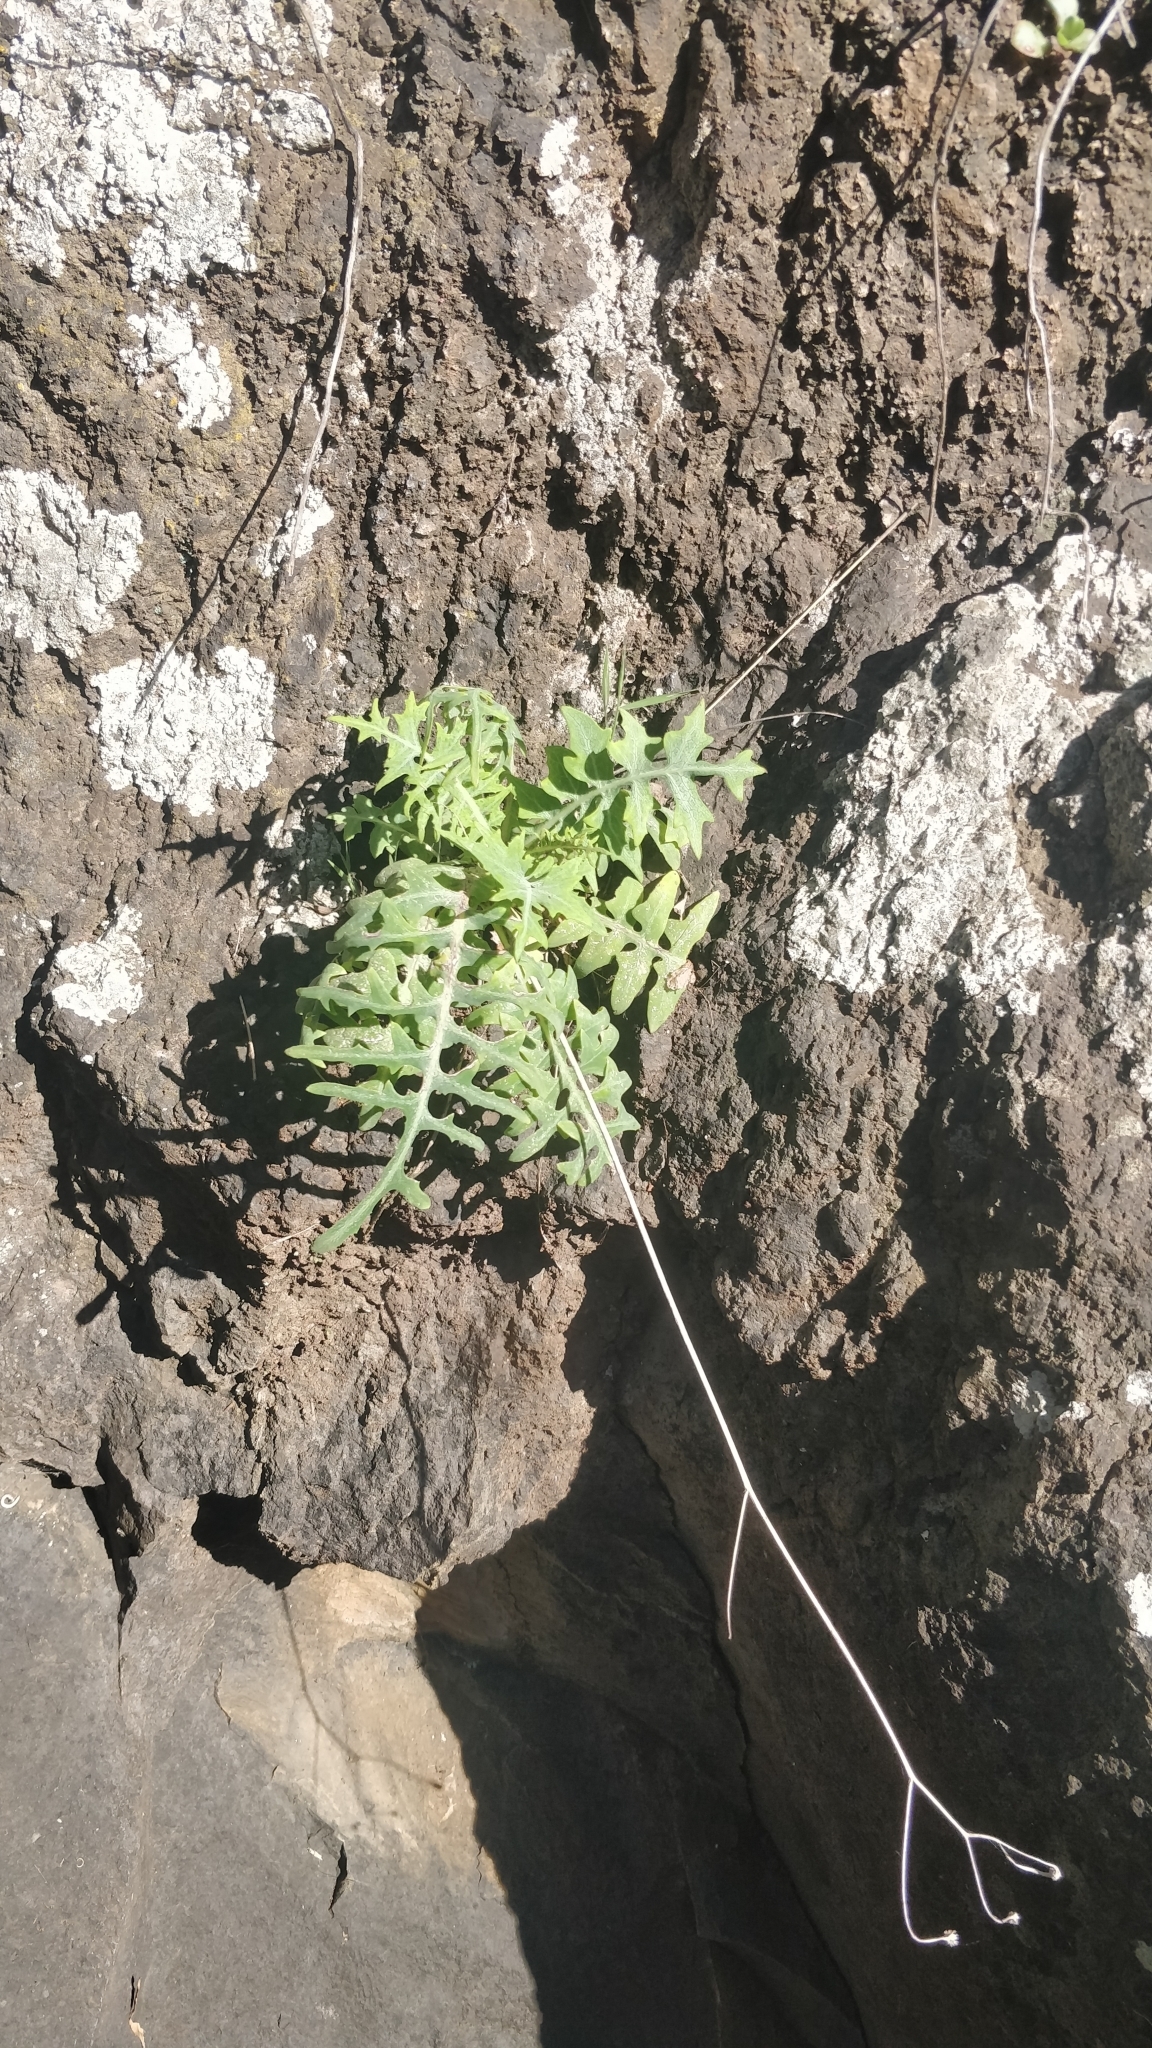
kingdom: Plantae
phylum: Tracheophyta
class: Magnoliopsida
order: Asterales
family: Asteraceae
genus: Sonchus
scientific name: Sonchus ustulatus
